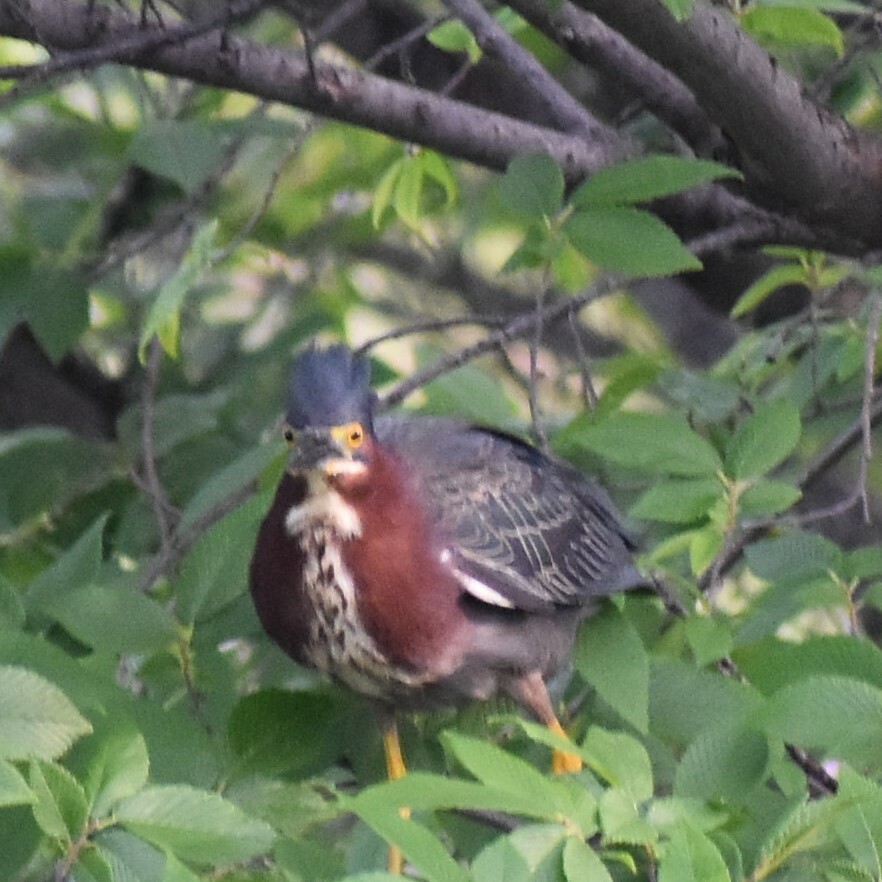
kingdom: Animalia
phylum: Chordata
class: Aves
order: Pelecaniformes
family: Ardeidae
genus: Butorides
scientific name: Butorides virescens
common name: Green heron
